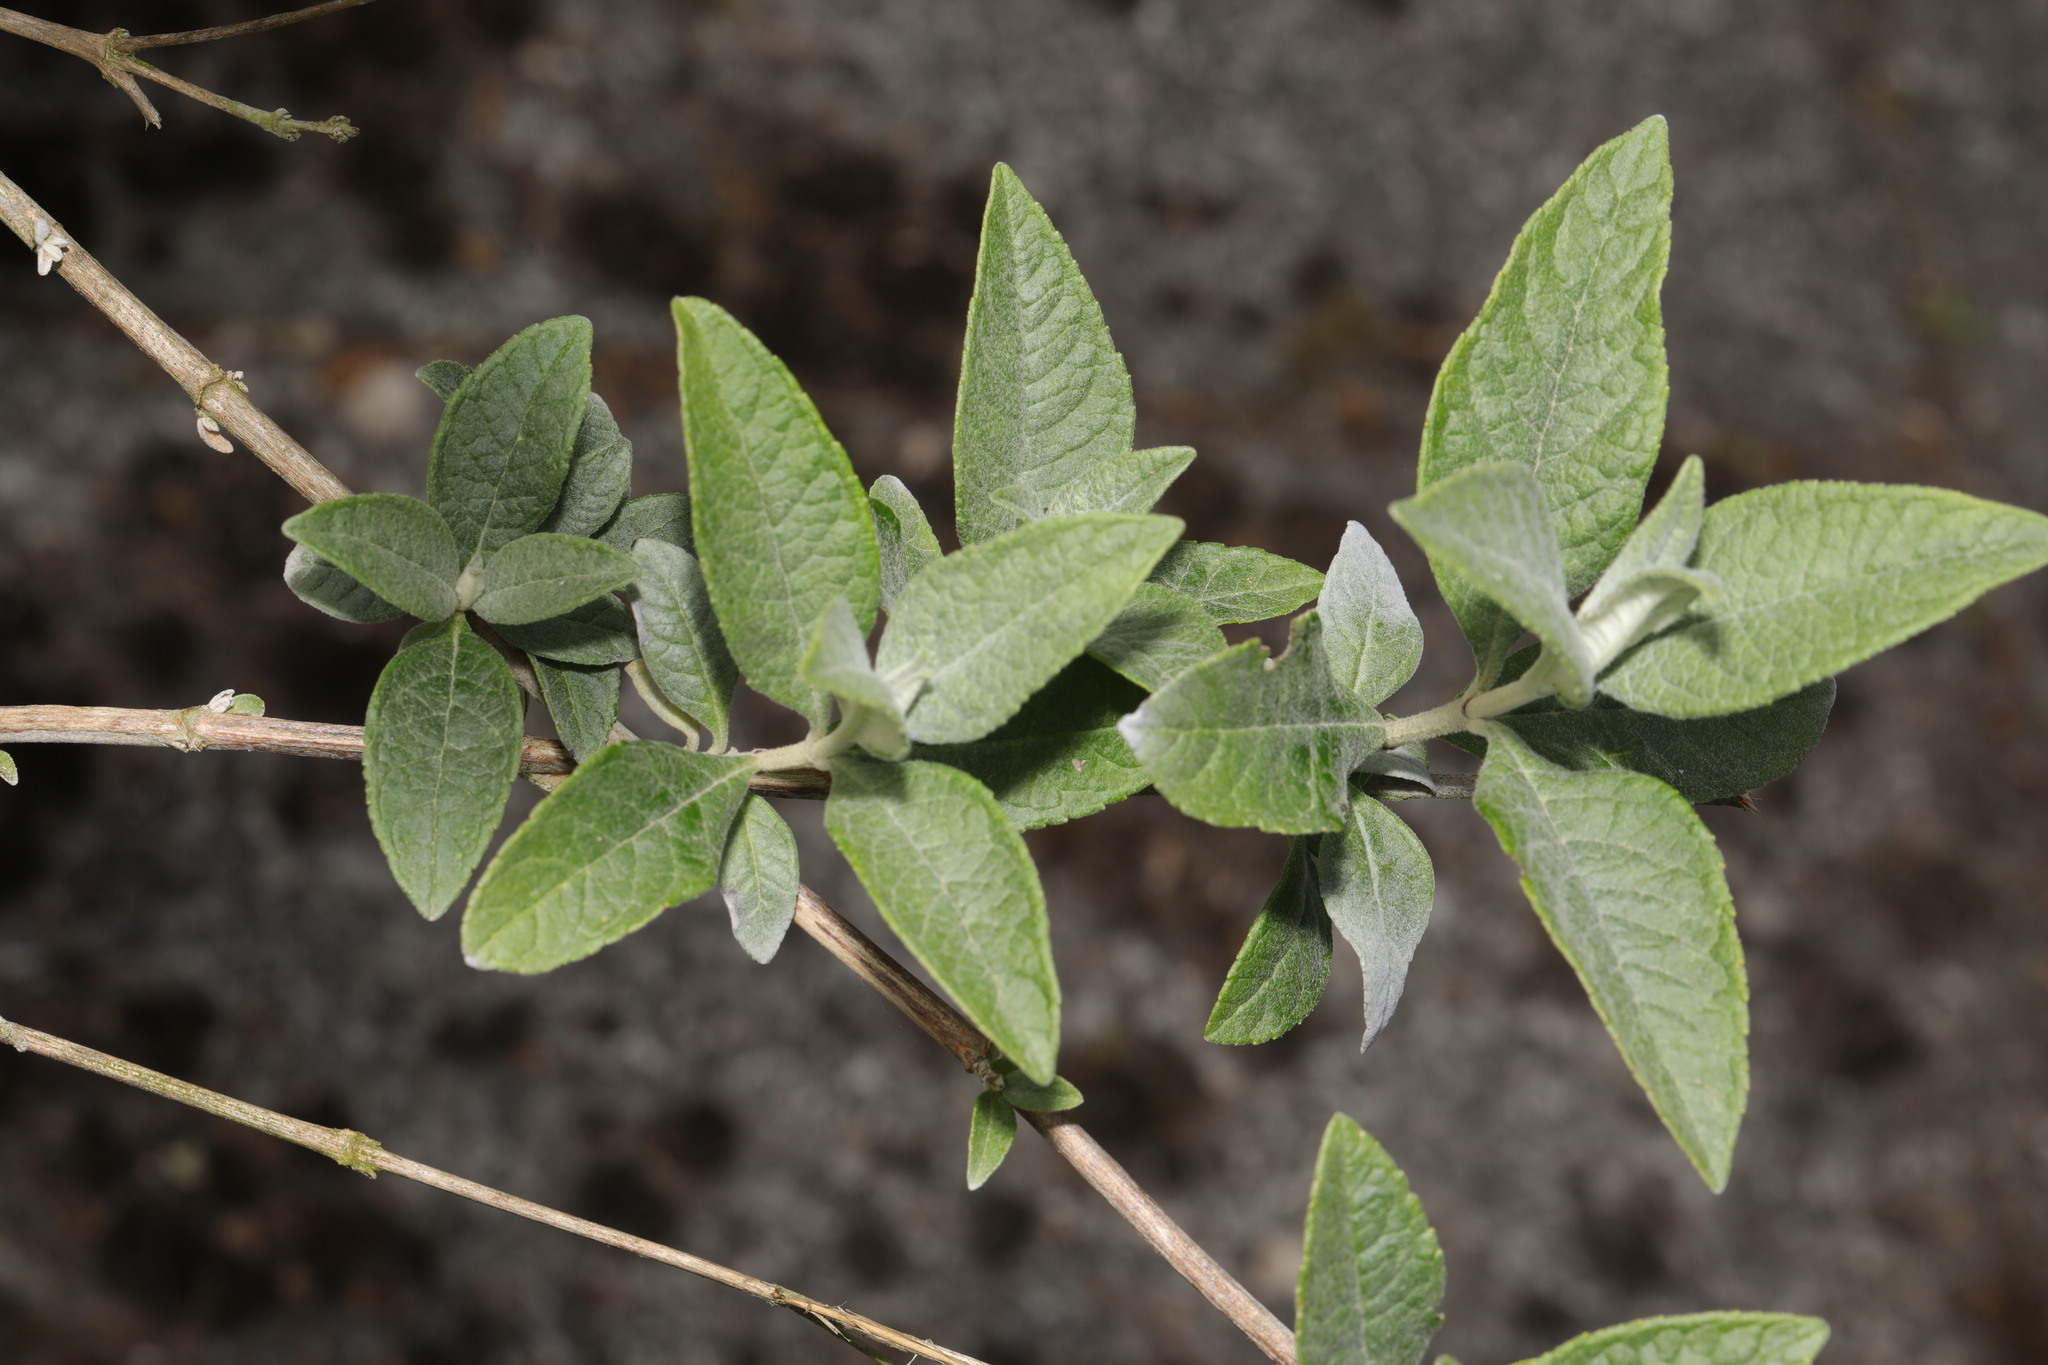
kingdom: Plantae
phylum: Tracheophyta
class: Magnoliopsida
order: Lamiales
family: Scrophulariaceae
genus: Buddleja
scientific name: Buddleja davidii
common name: Butterfly-bush
